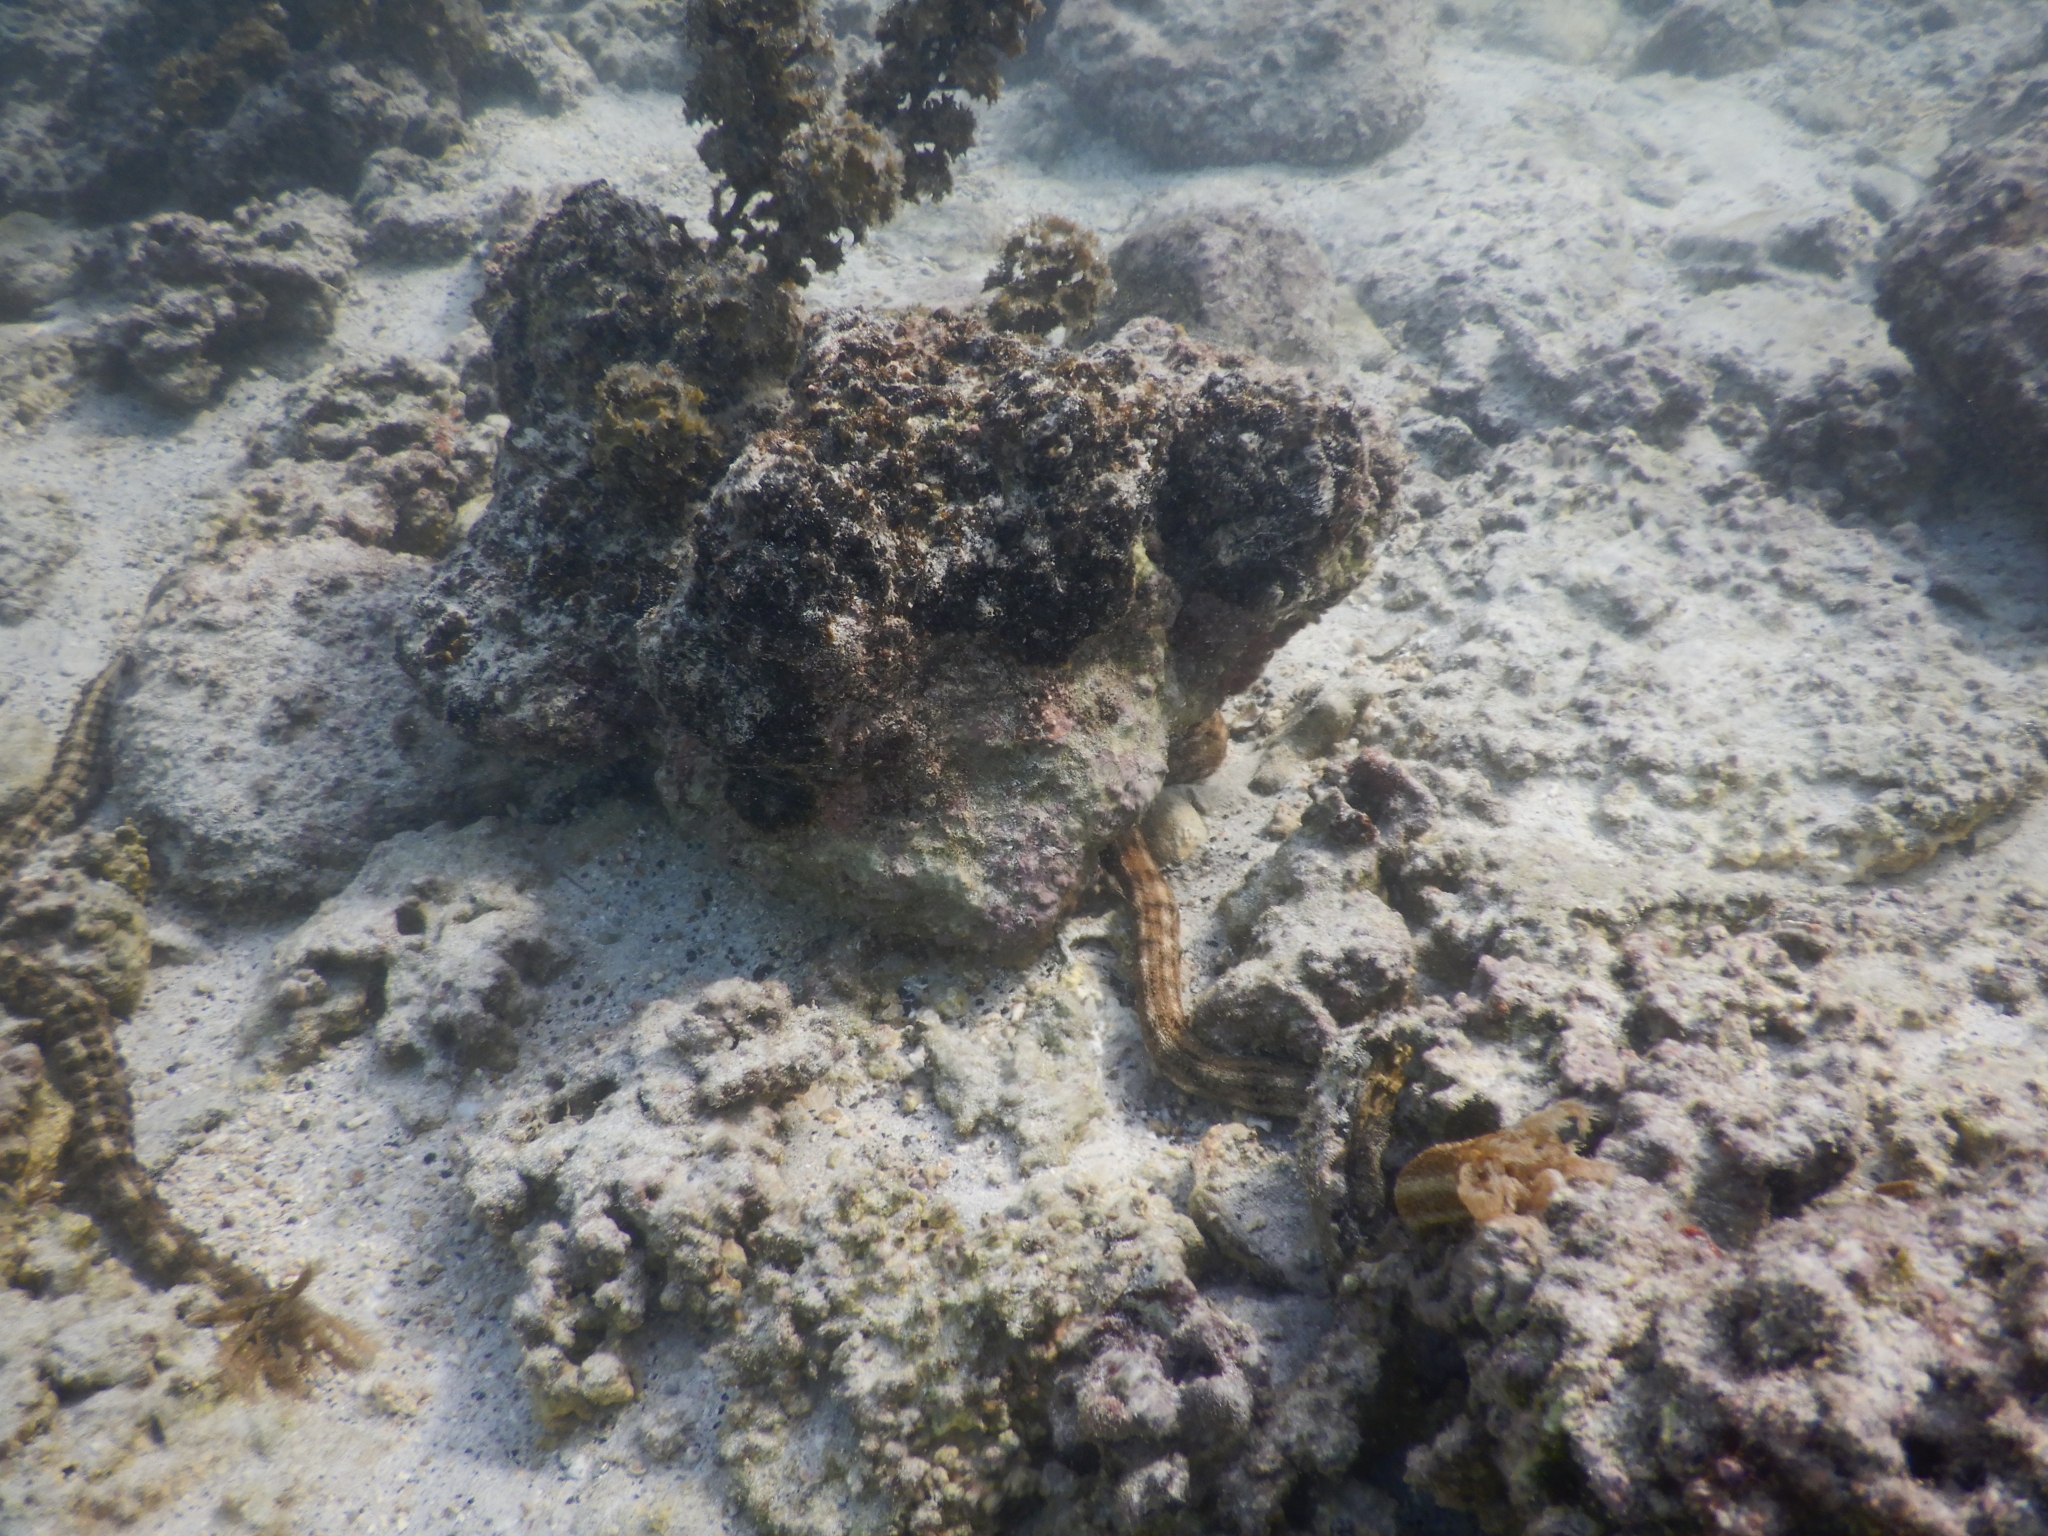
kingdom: Animalia
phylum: Echinodermata
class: Holothuroidea
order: Apodida
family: Synaptidae
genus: Synapta
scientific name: Synapta maculata
